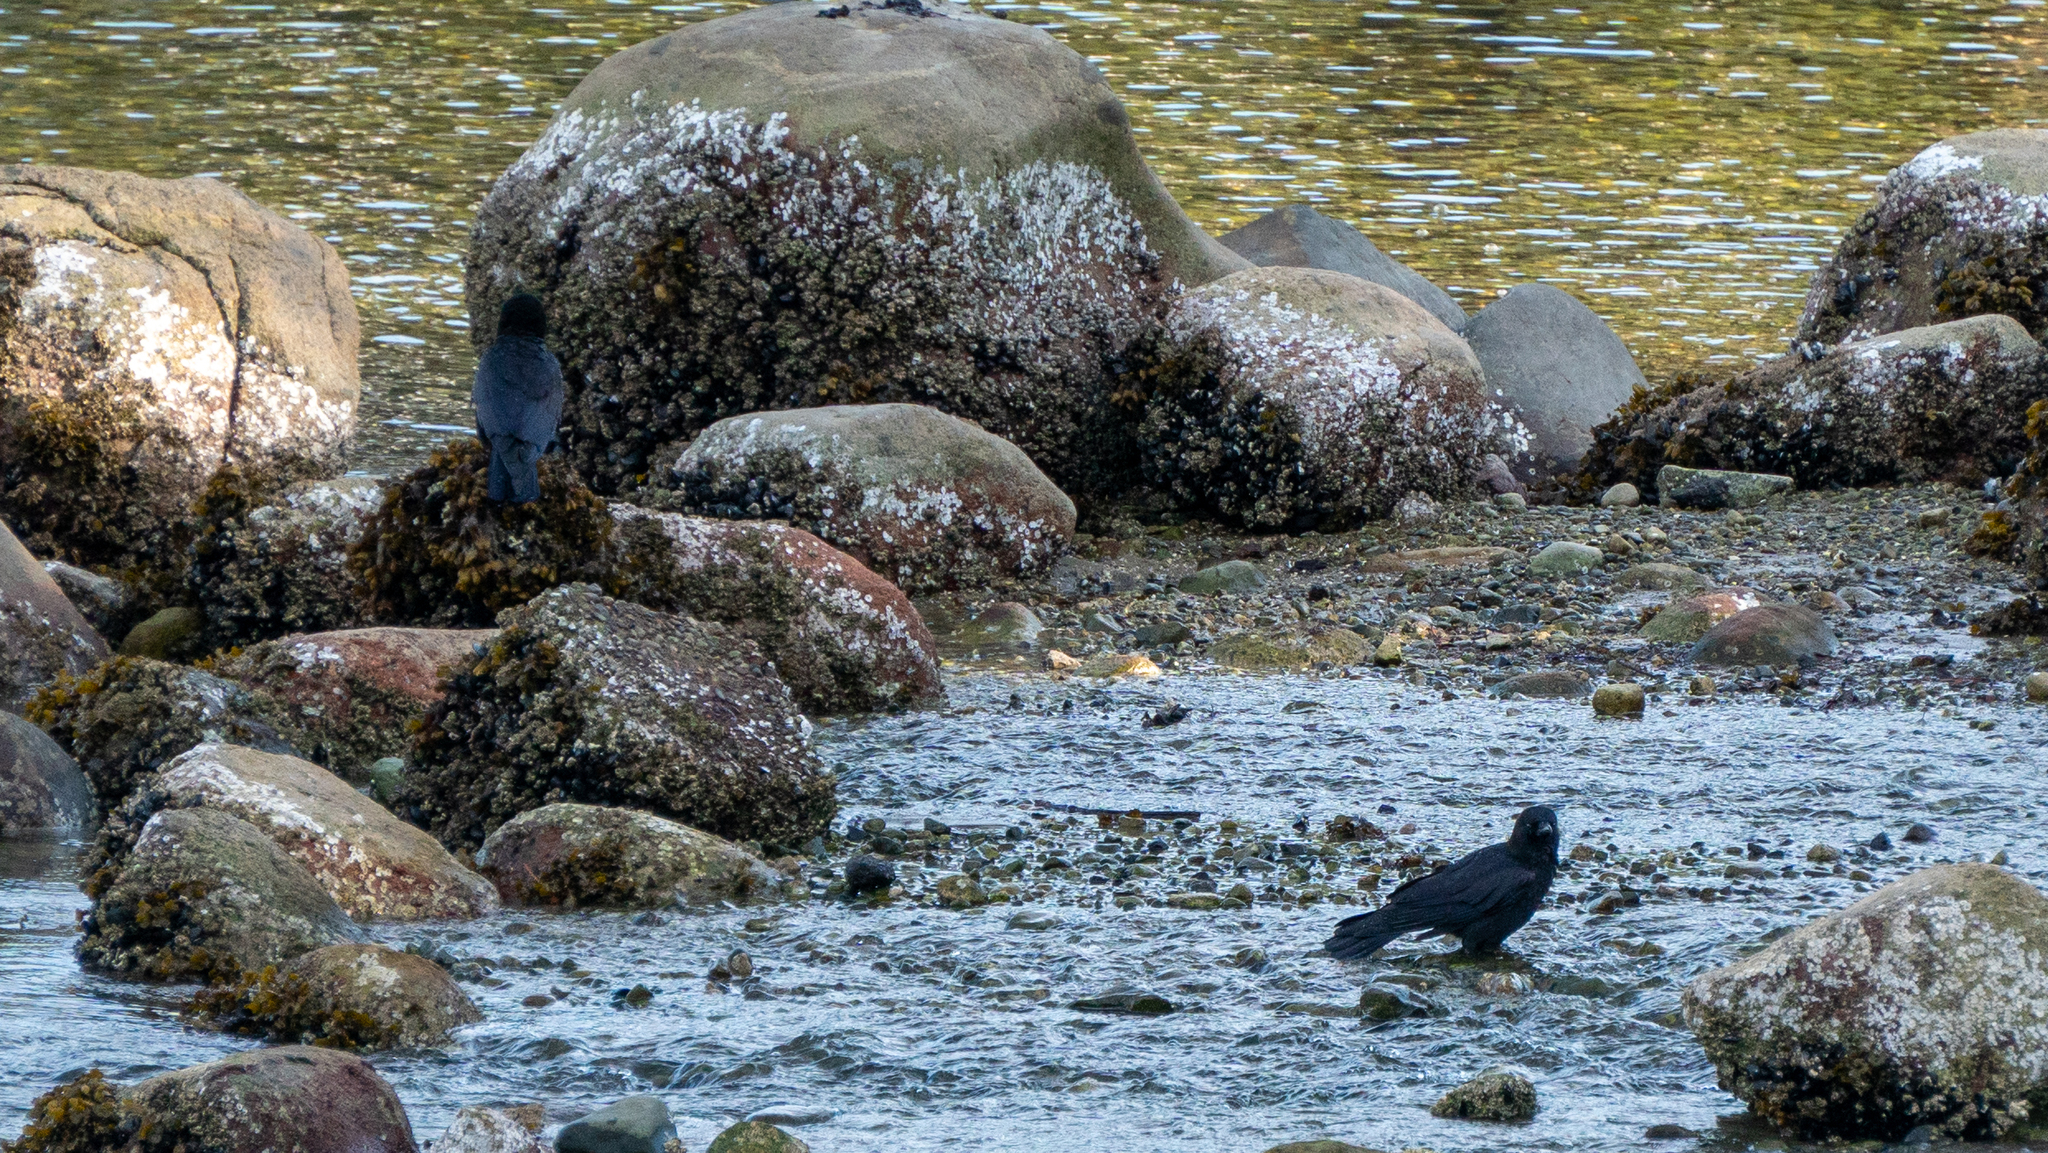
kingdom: Animalia
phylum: Chordata
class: Aves
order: Passeriformes
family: Corvidae
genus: Corvus
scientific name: Corvus brachyrhynchos
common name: American crow
